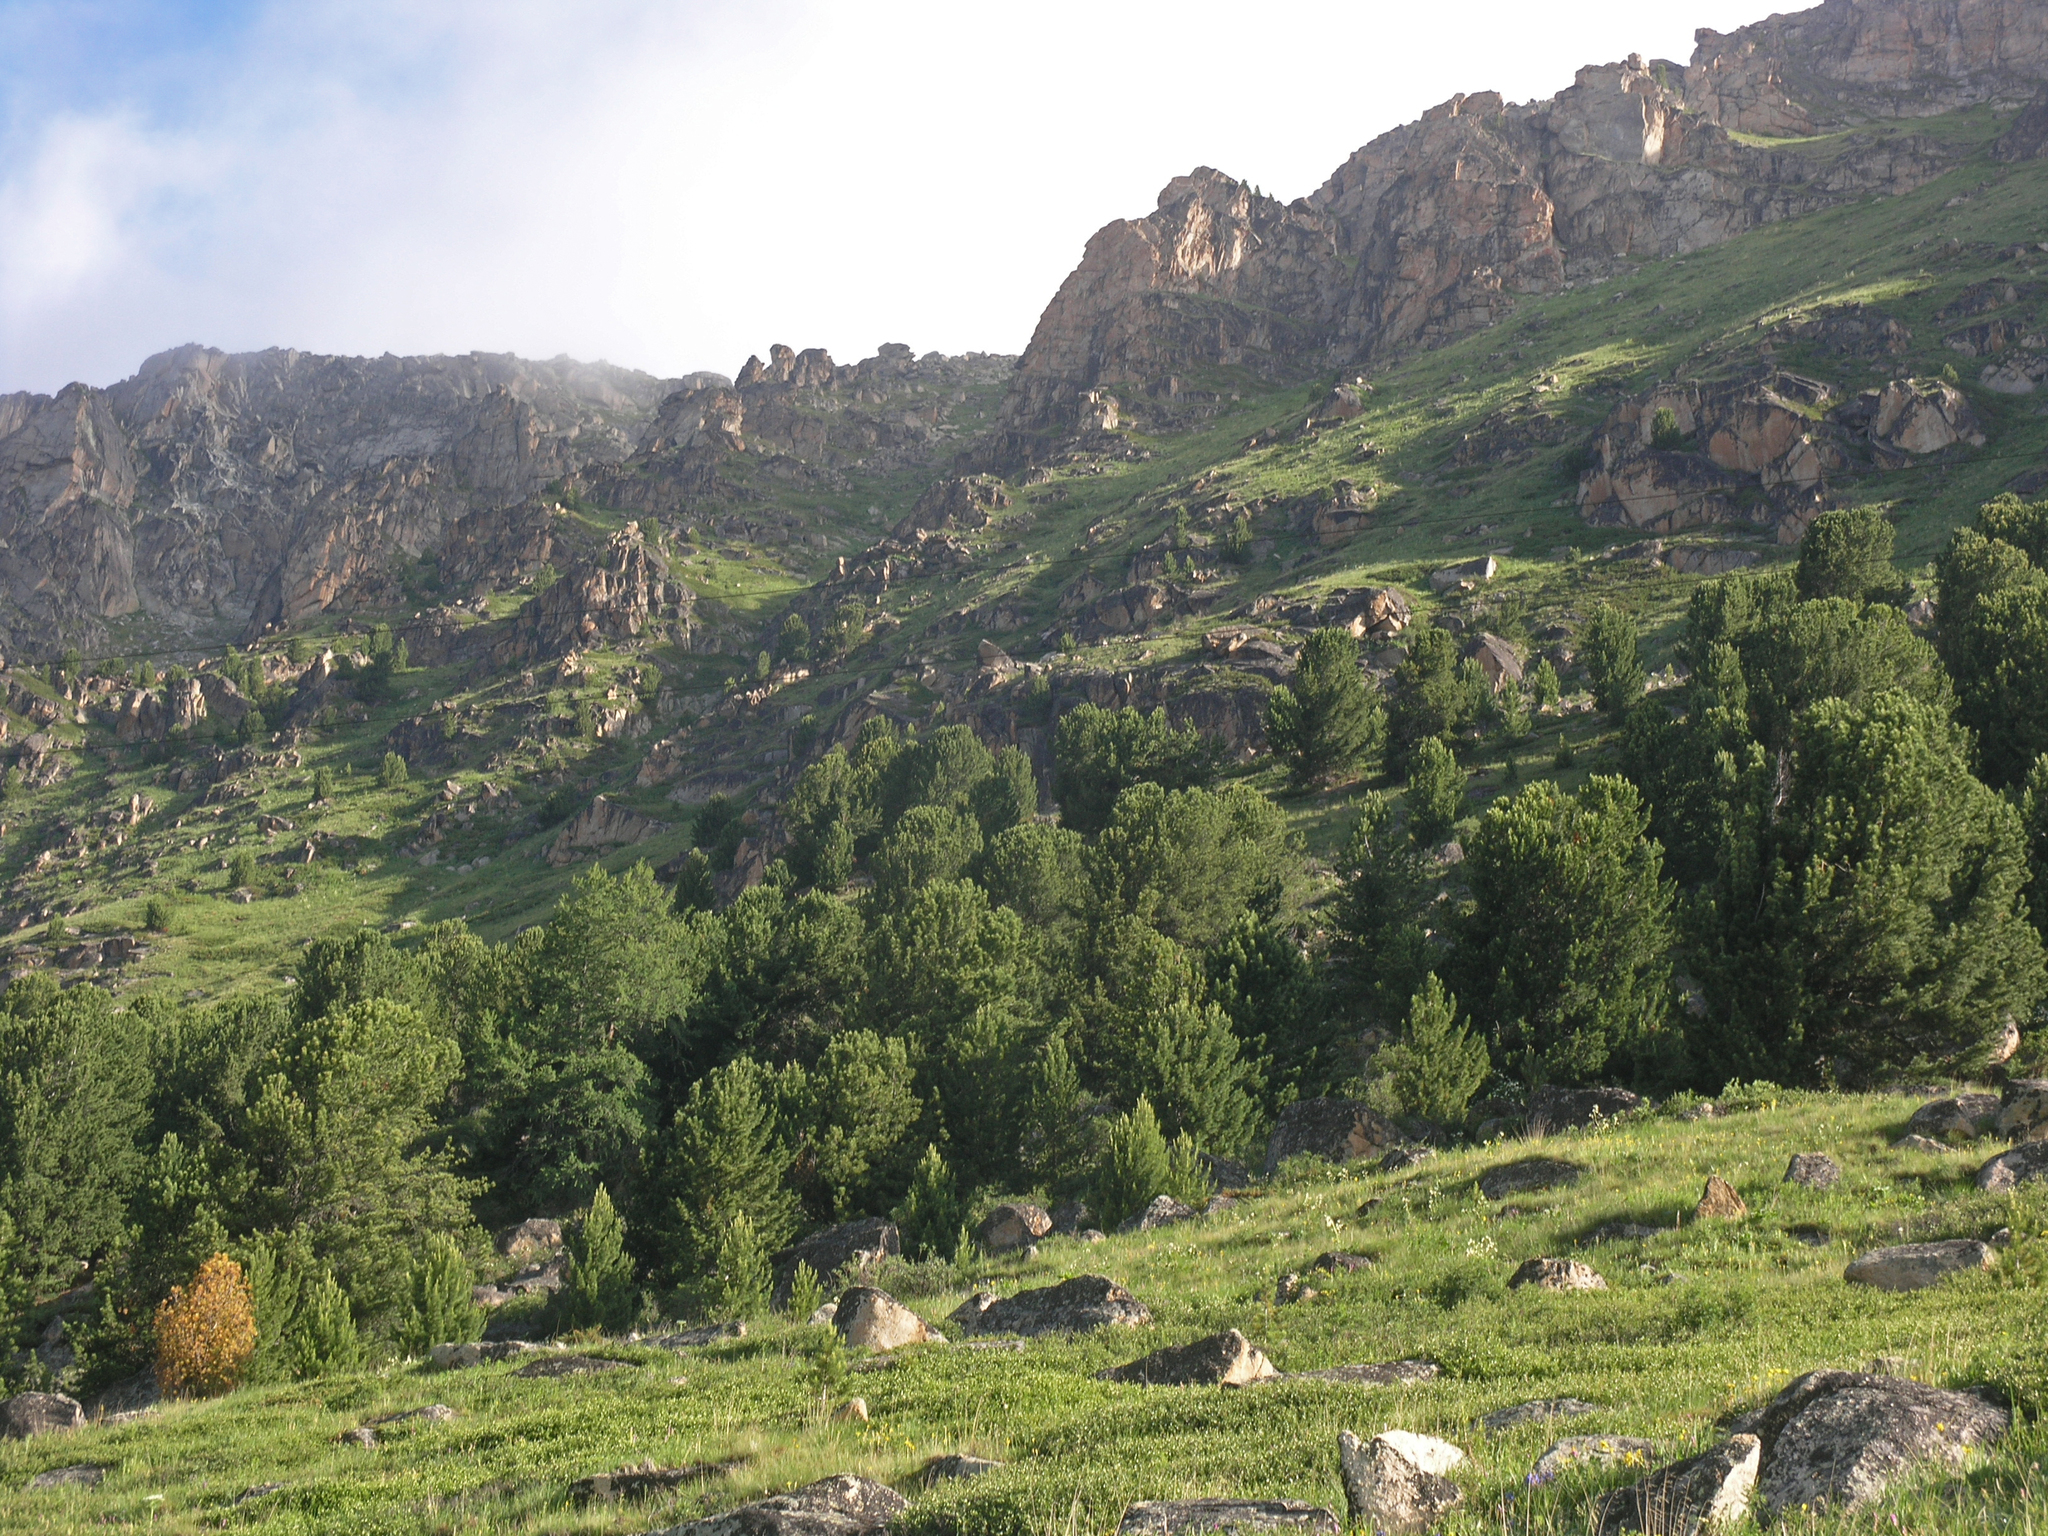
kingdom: Plantae
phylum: Tracheophyta
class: Pinopsida
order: Pinales
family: Pinaceae
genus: Pinus
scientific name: Pinus sibirica
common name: Siberian pine
